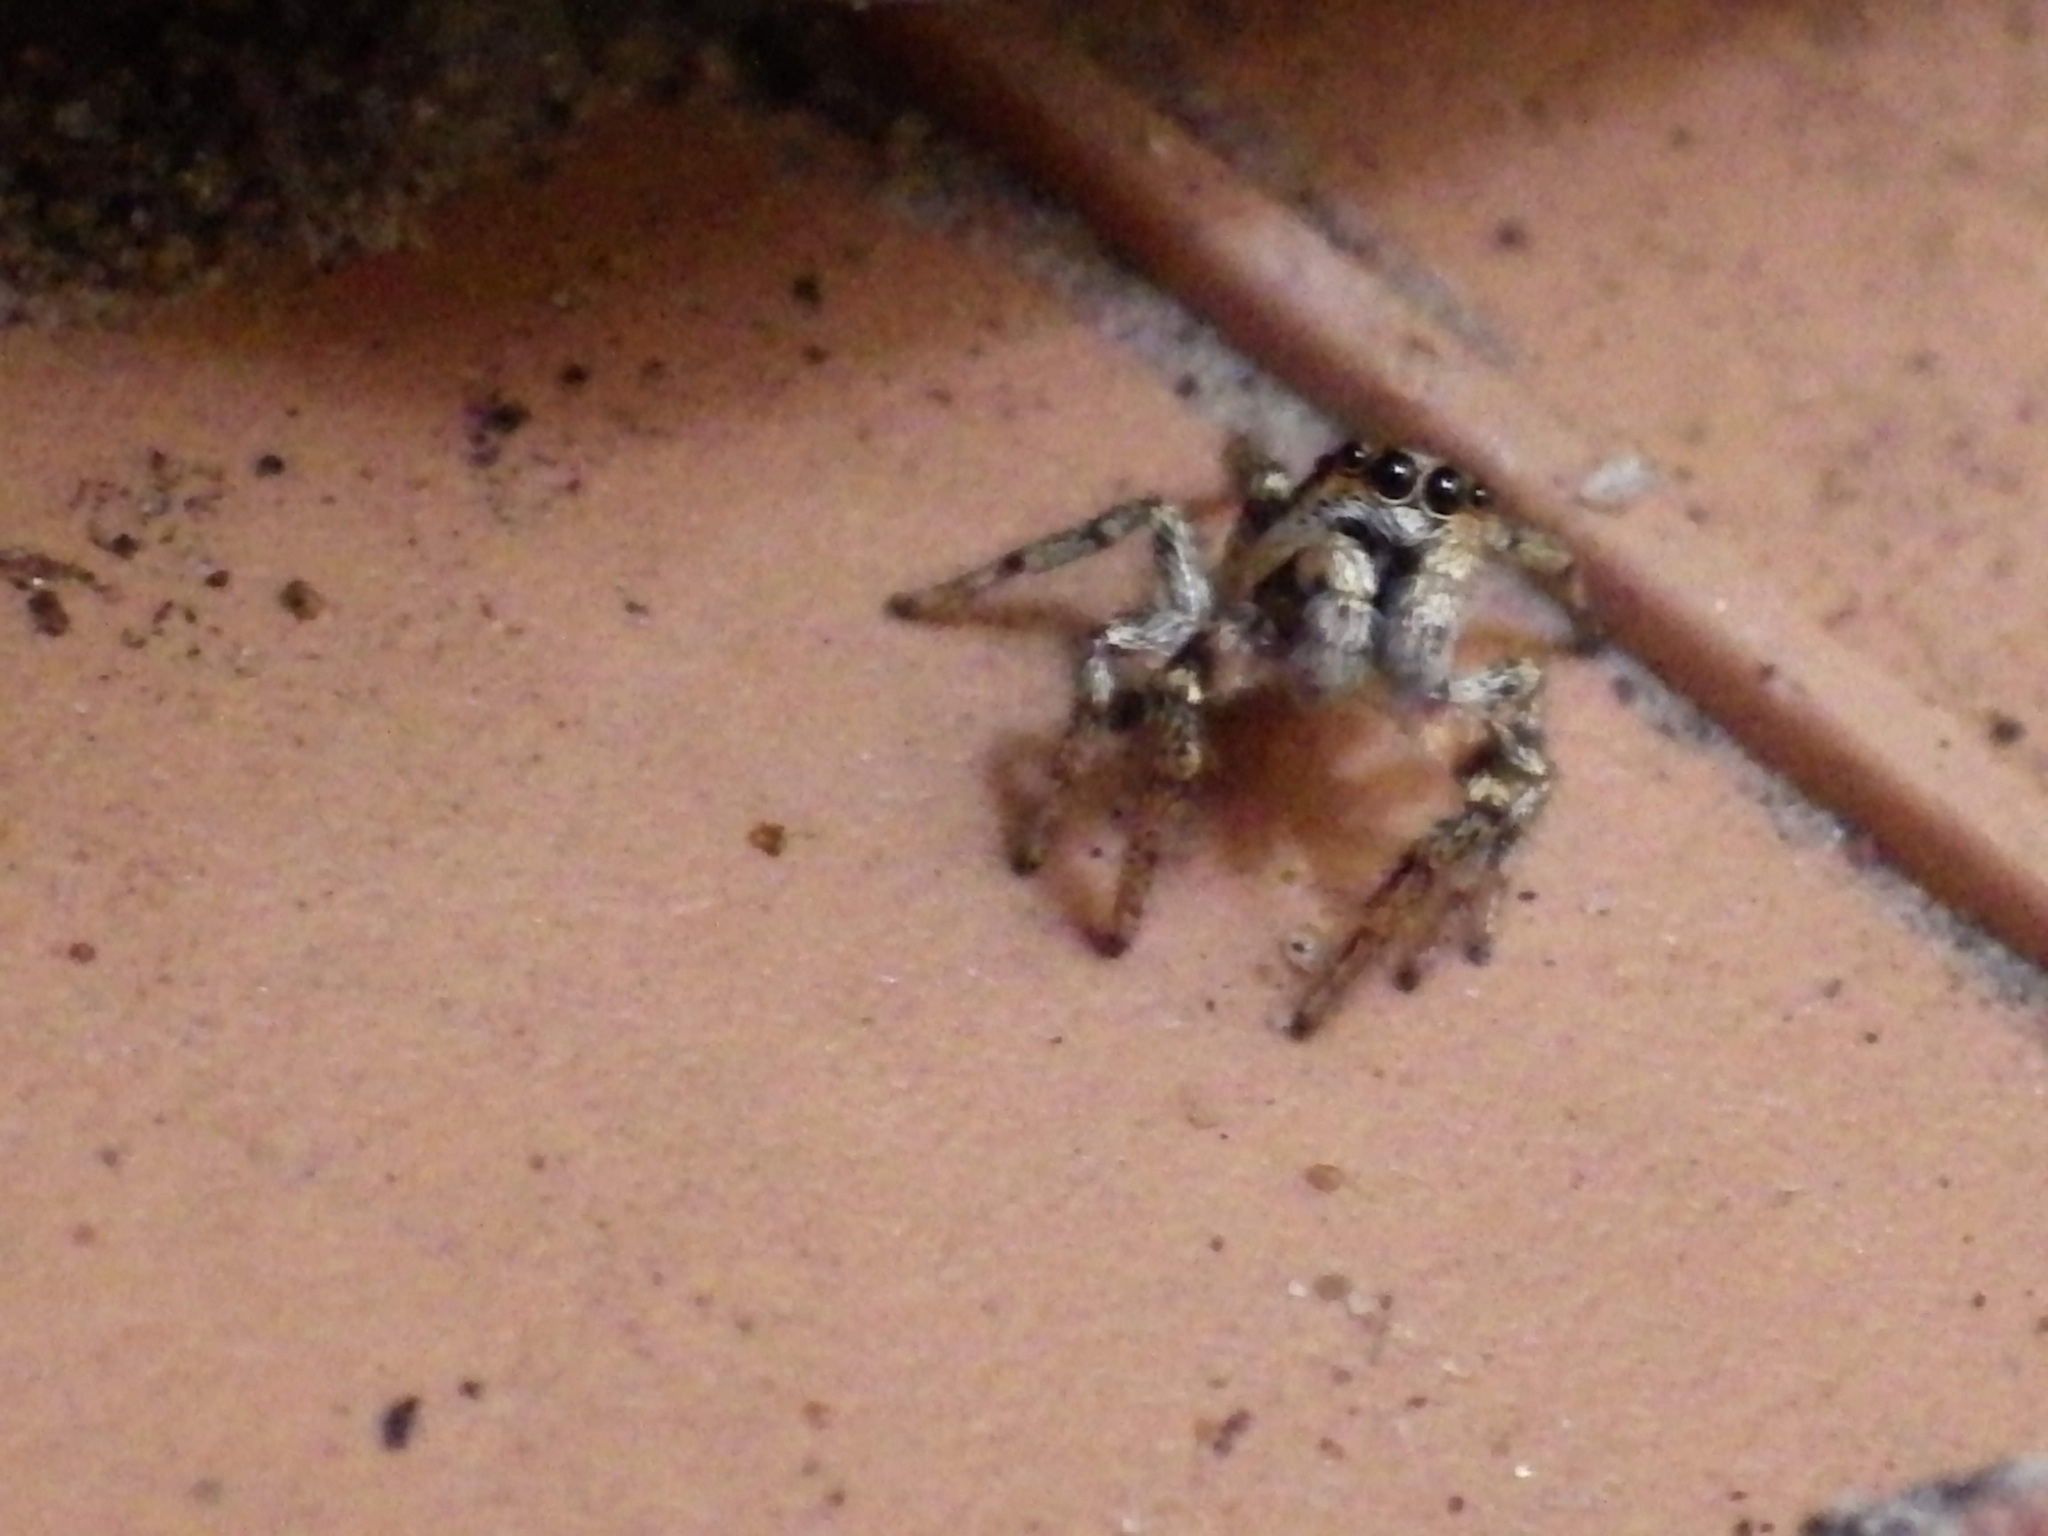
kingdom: Animalia
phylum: Arthropoda
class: Arachnida
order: Araneae
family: Salticidae
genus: Salticus
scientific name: Salticus scenicus
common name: Zebra jumper
